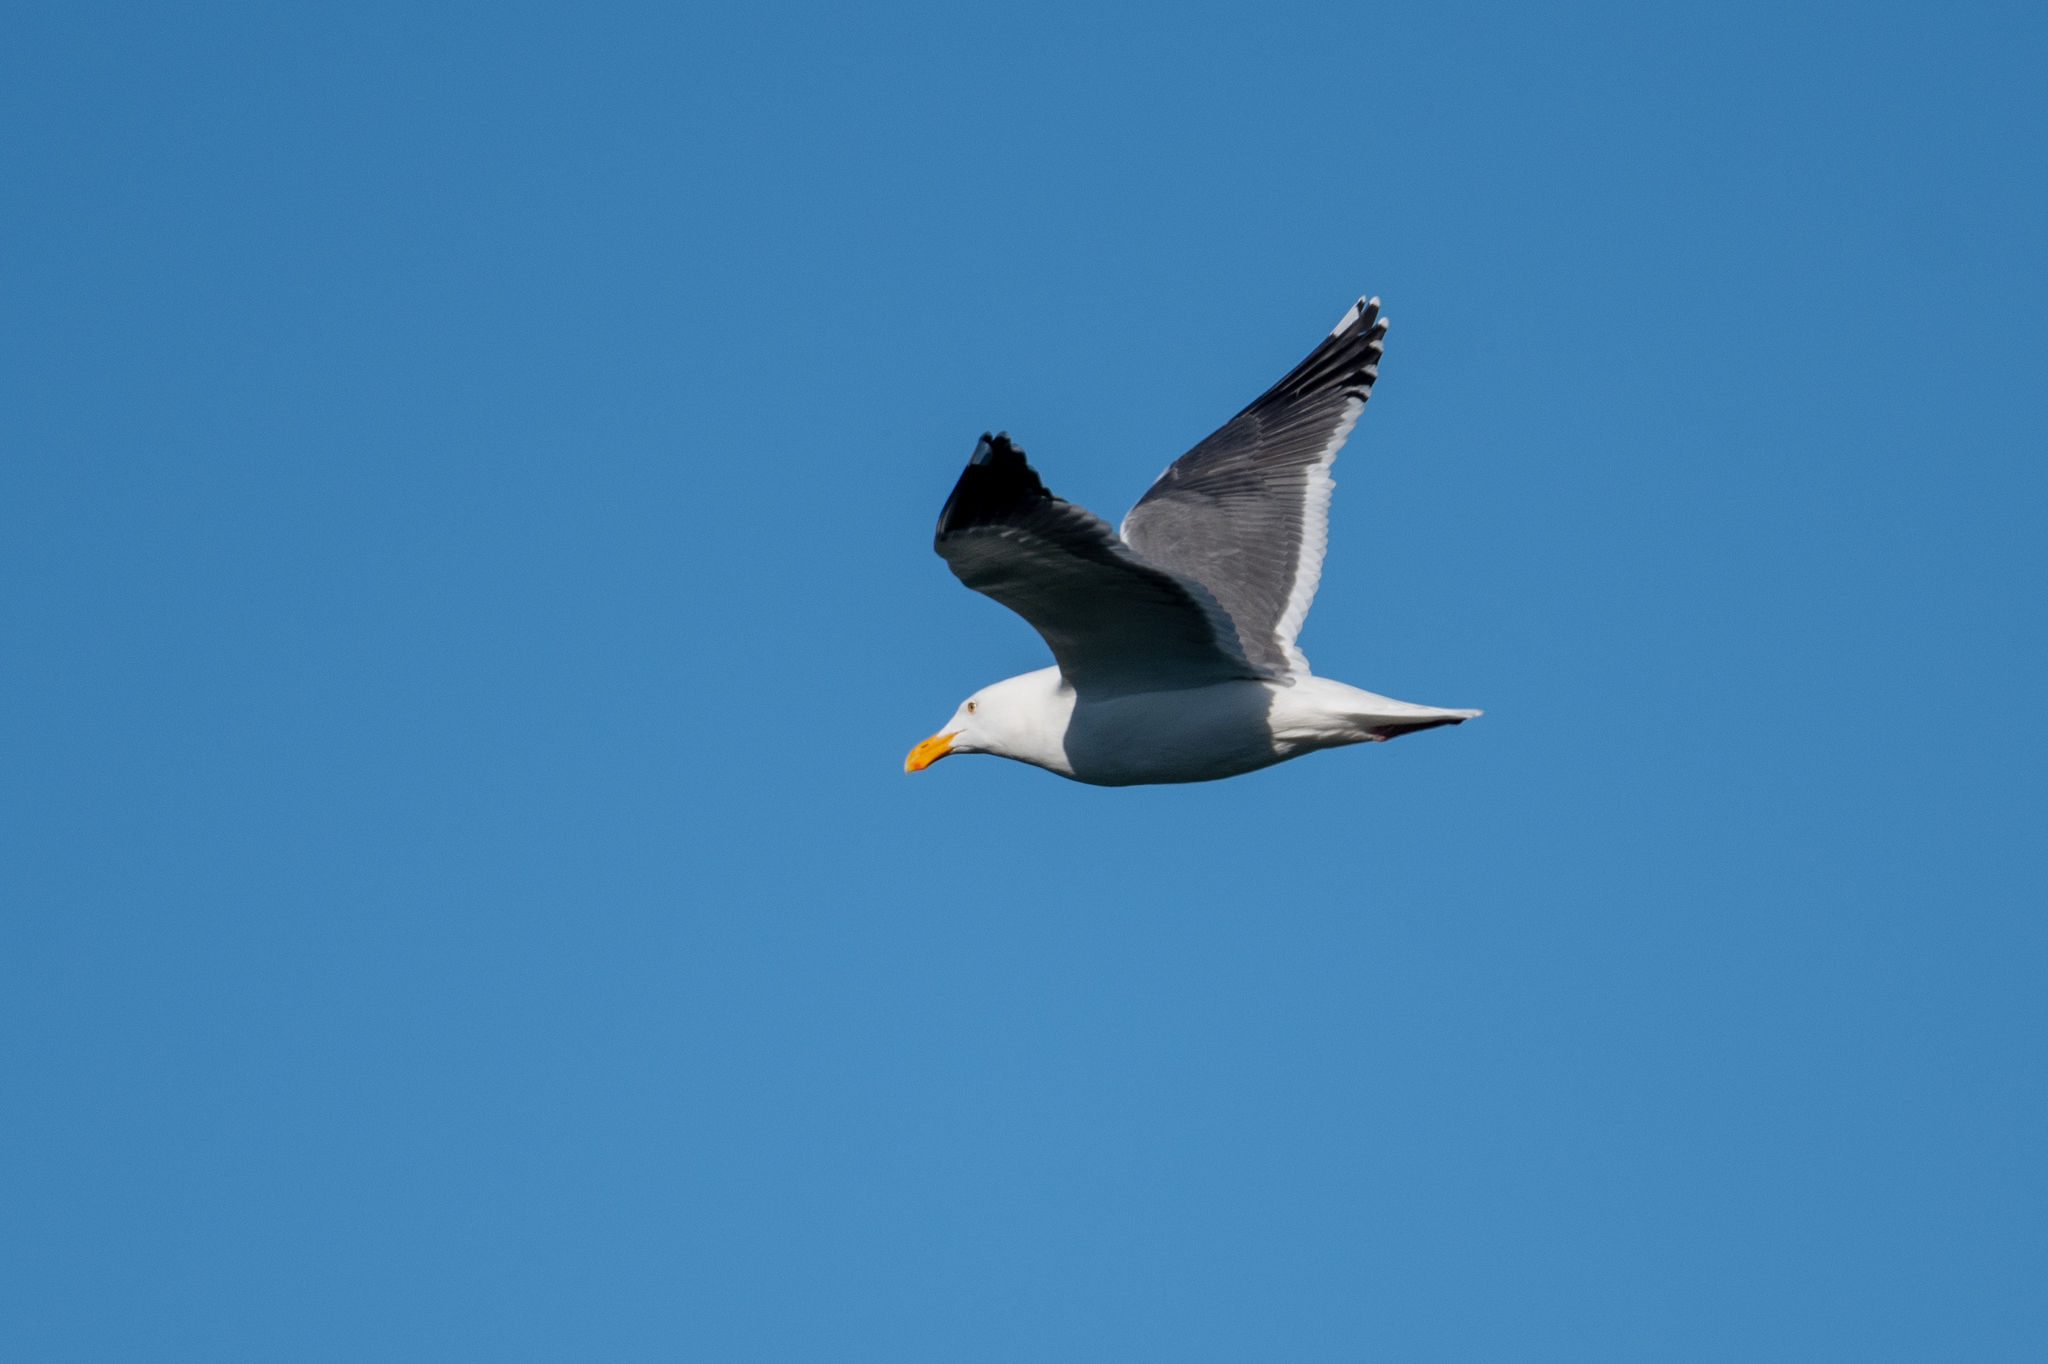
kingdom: Animalia
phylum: Chordata
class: Aves
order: Charadriiformes
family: Laridae
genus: Larus
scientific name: Larus occidentalis
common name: Western gull
